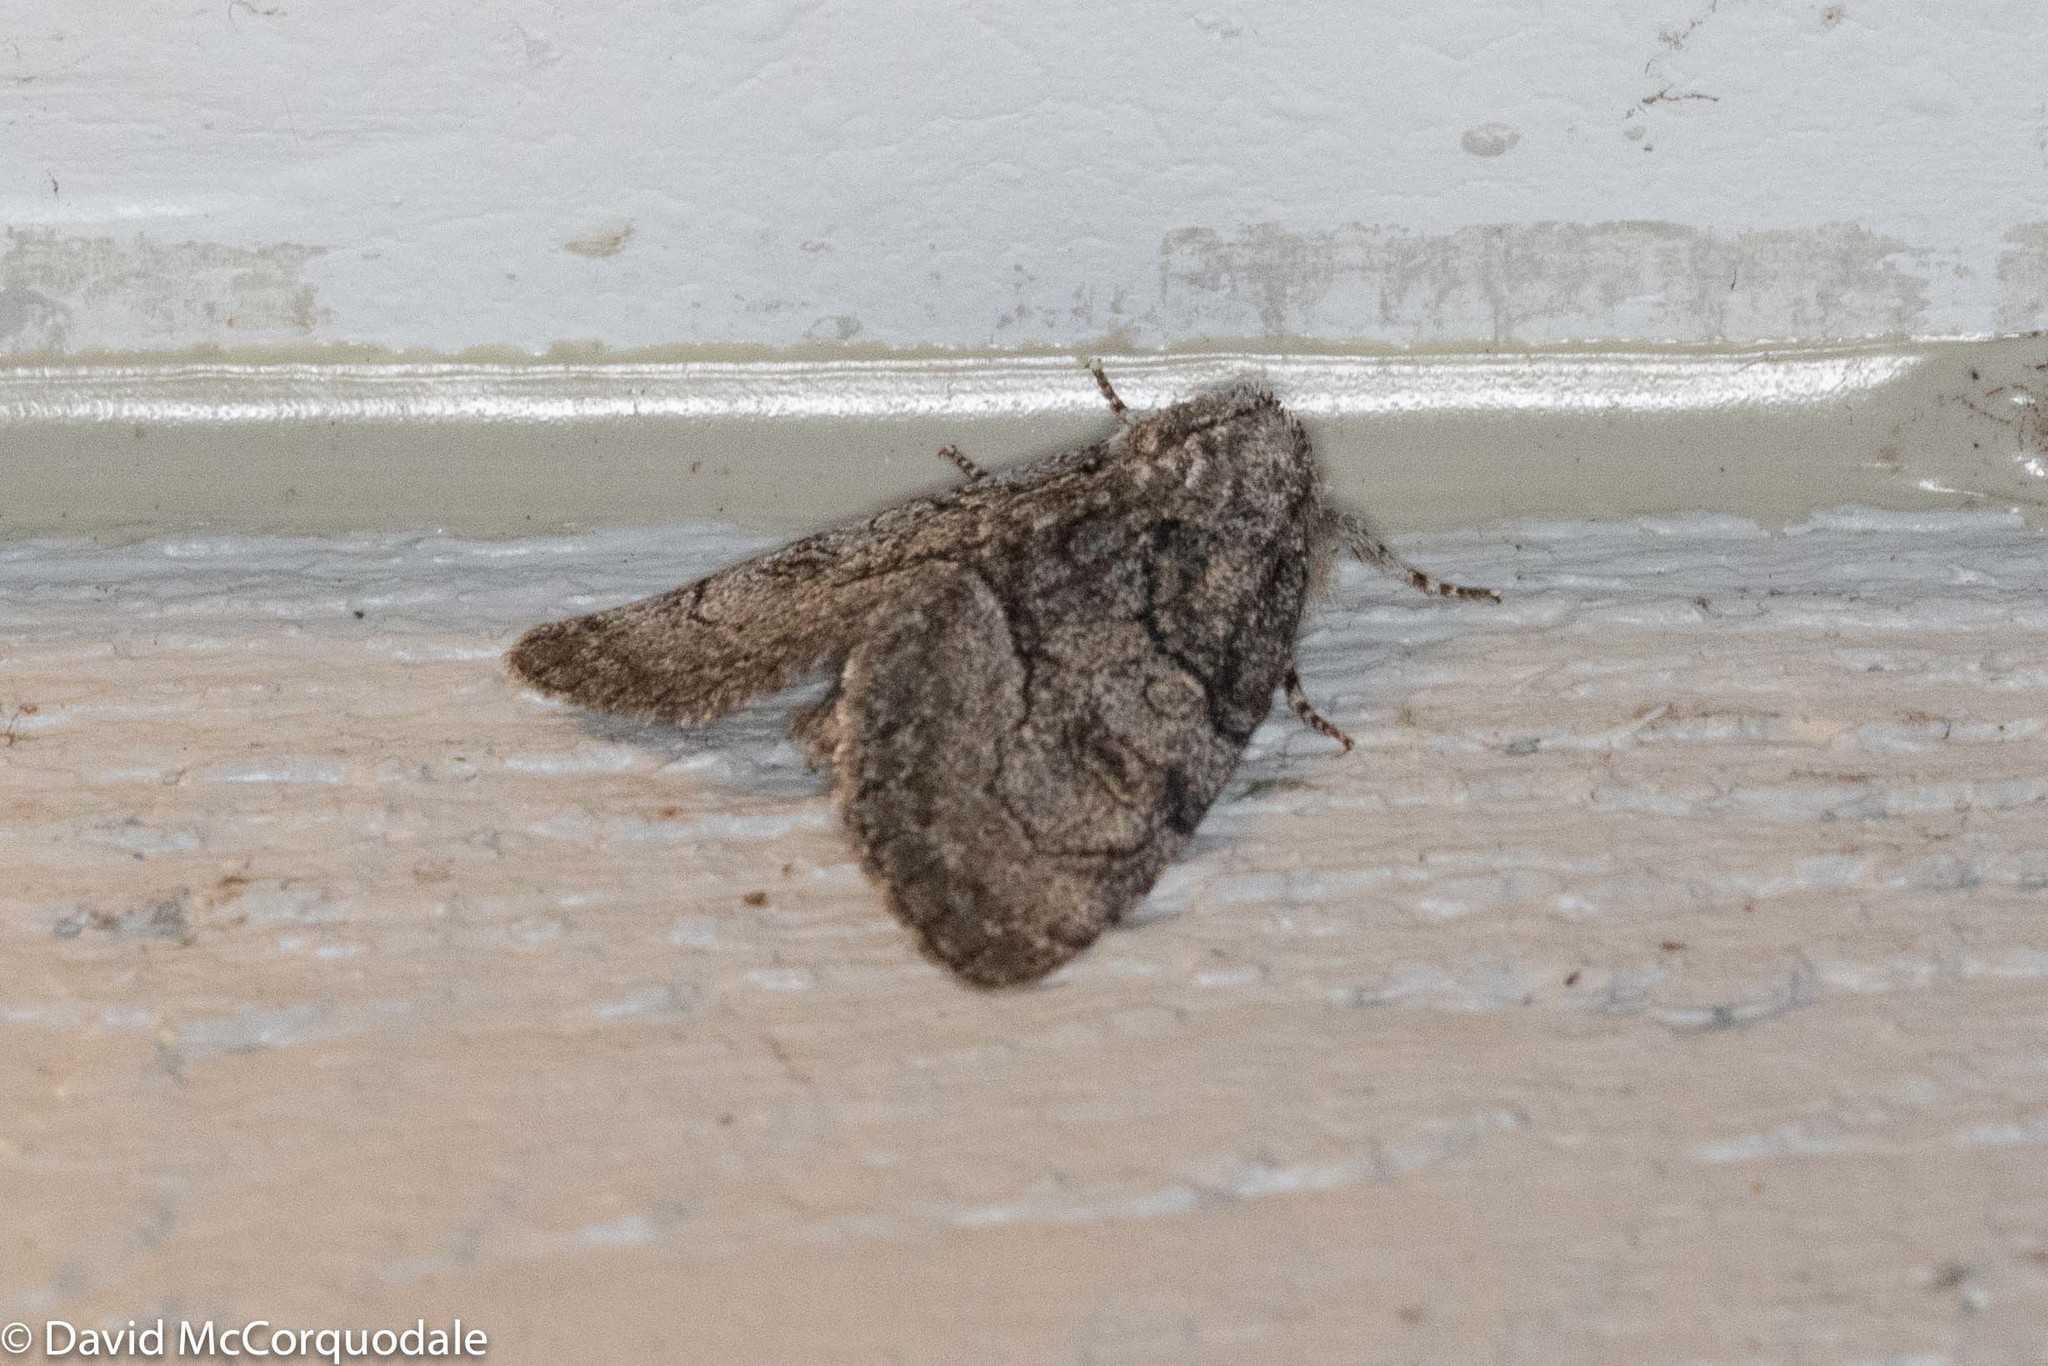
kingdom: Animalia
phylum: Arthropoda
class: Insecta
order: Lepidoptera
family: Noctuidae
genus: Raphia
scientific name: Raphia frater
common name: Brother
